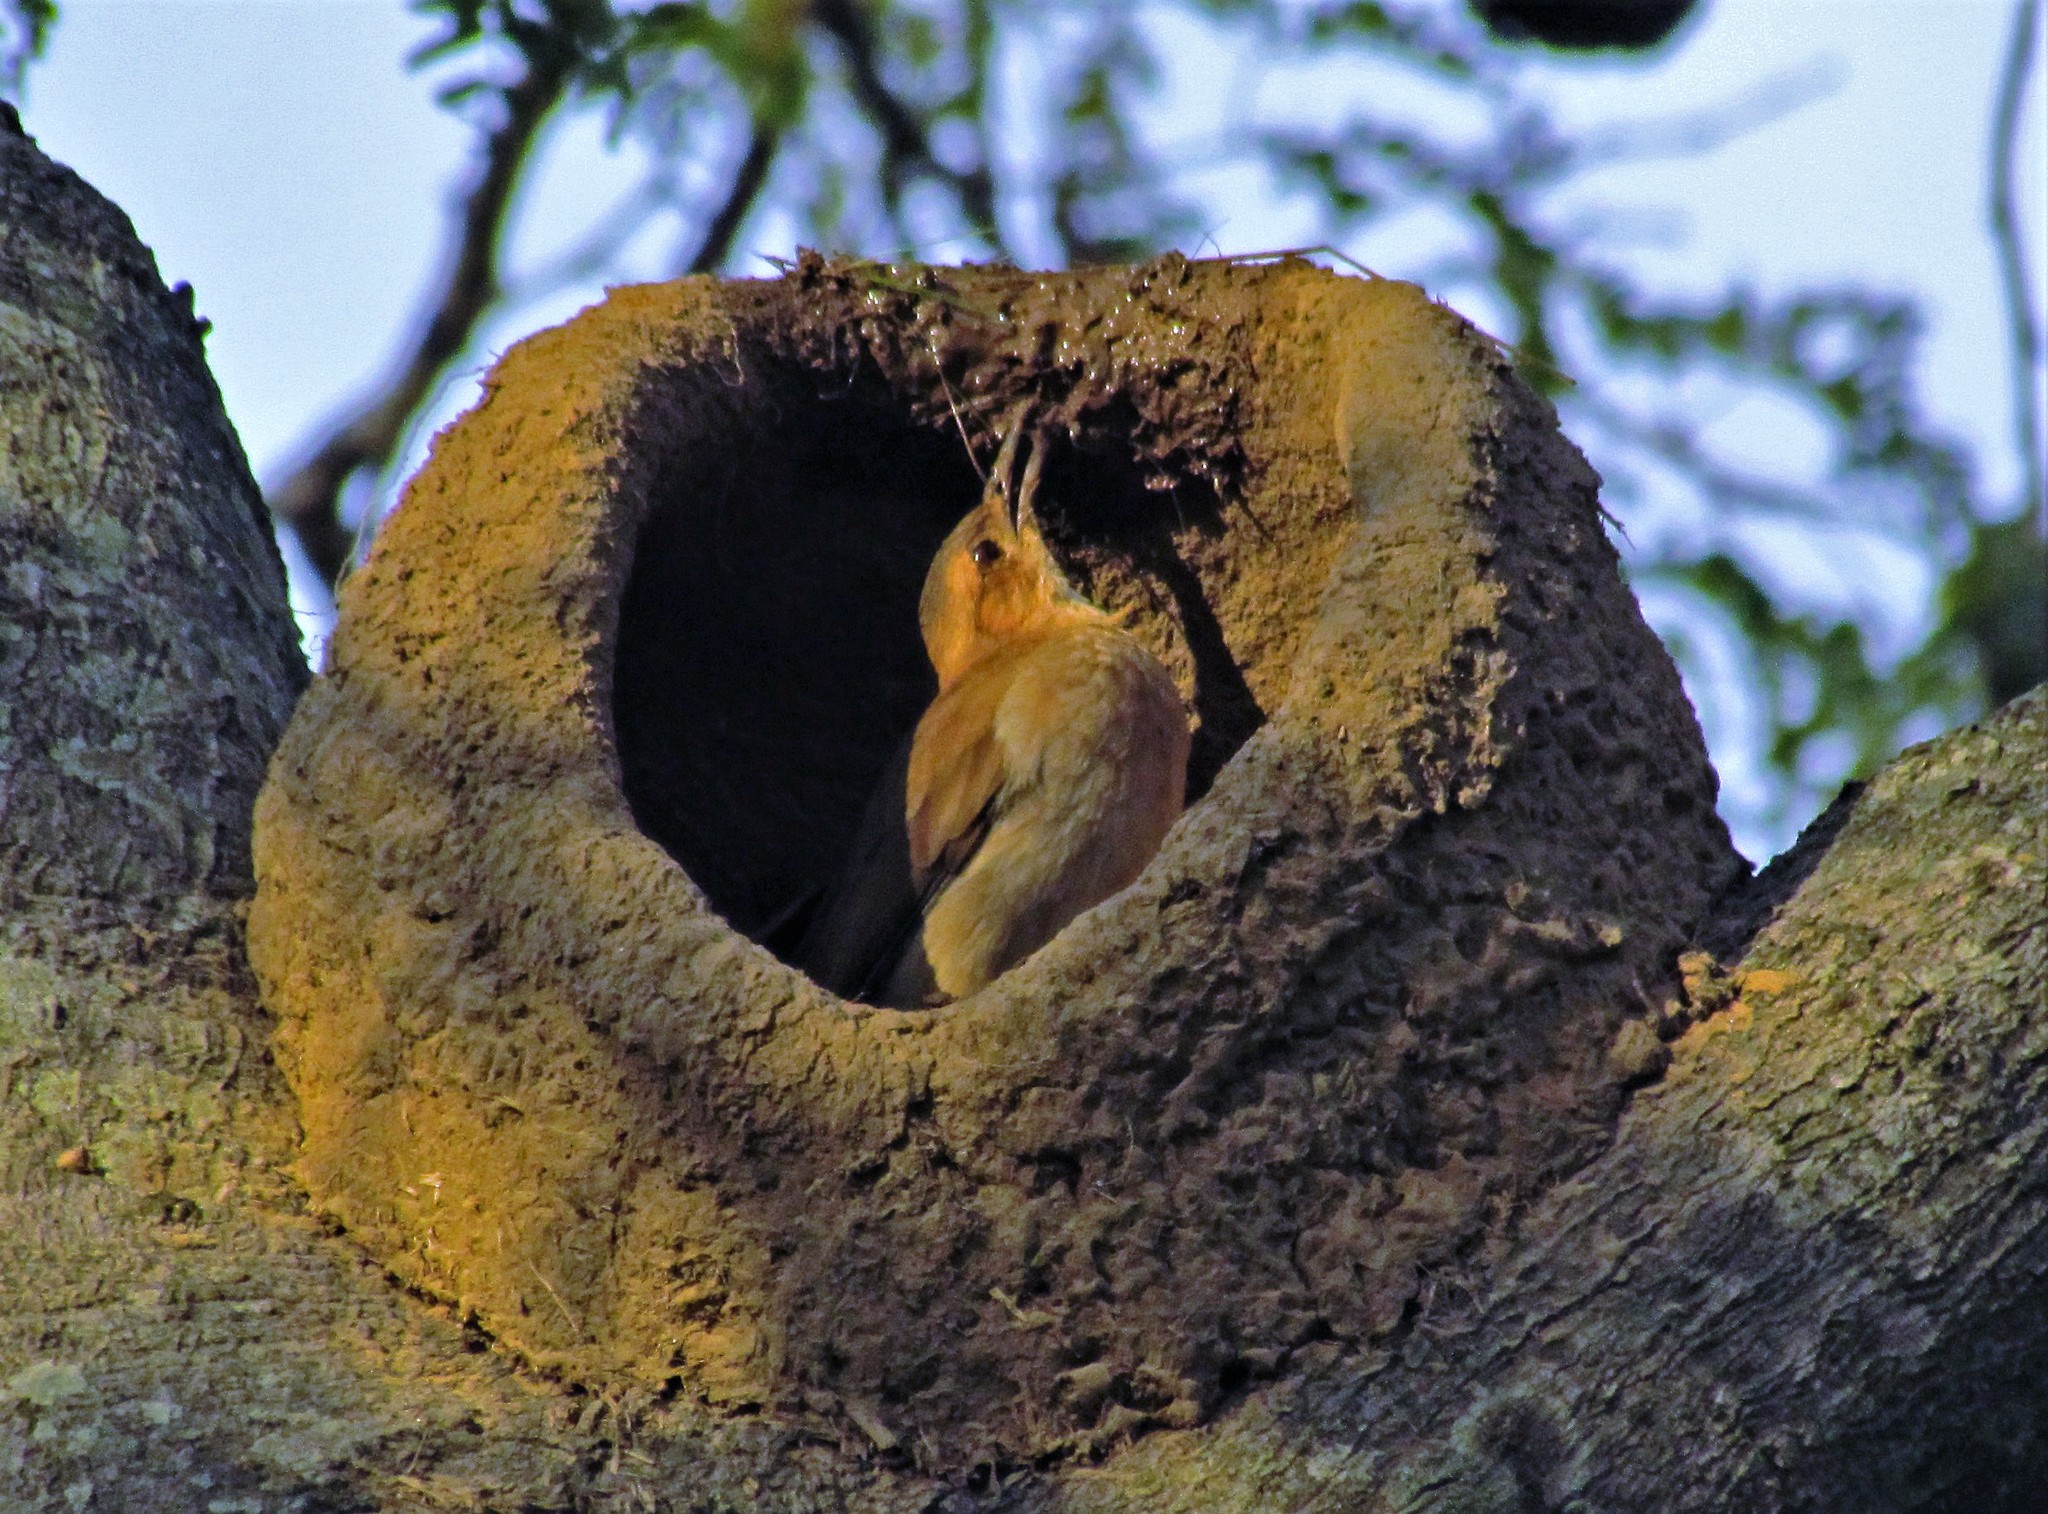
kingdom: Animalia
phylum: Chordata
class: Aves
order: Passeriformes
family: Furnariidae
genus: Furnarius
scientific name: Furnarius rufus
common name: Rufous hornero
